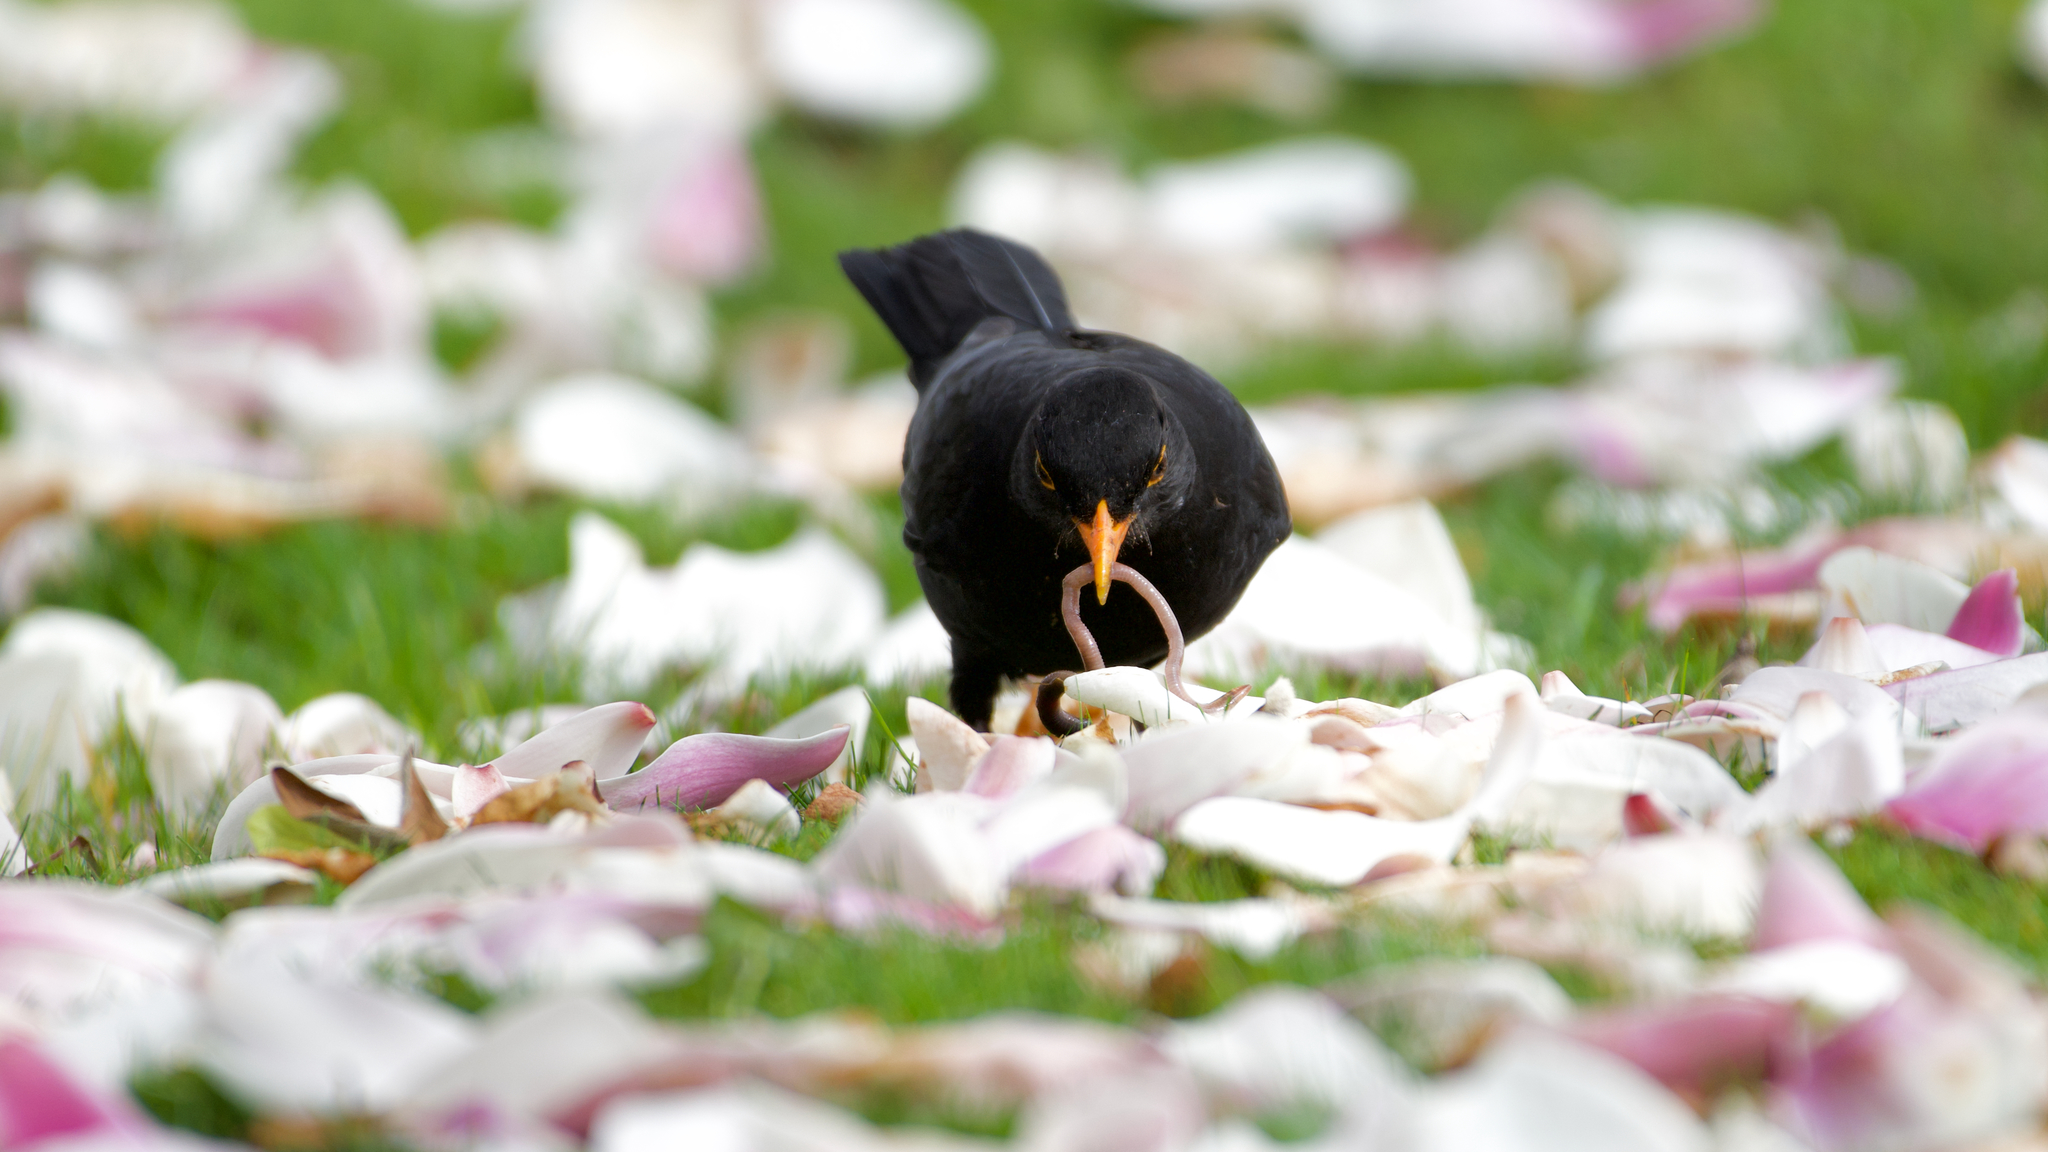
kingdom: Animalia
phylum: Chordata
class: Aves
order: Passeriformes
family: Turdidae
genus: Turdus
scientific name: Turdus merula
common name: Common blackbird
